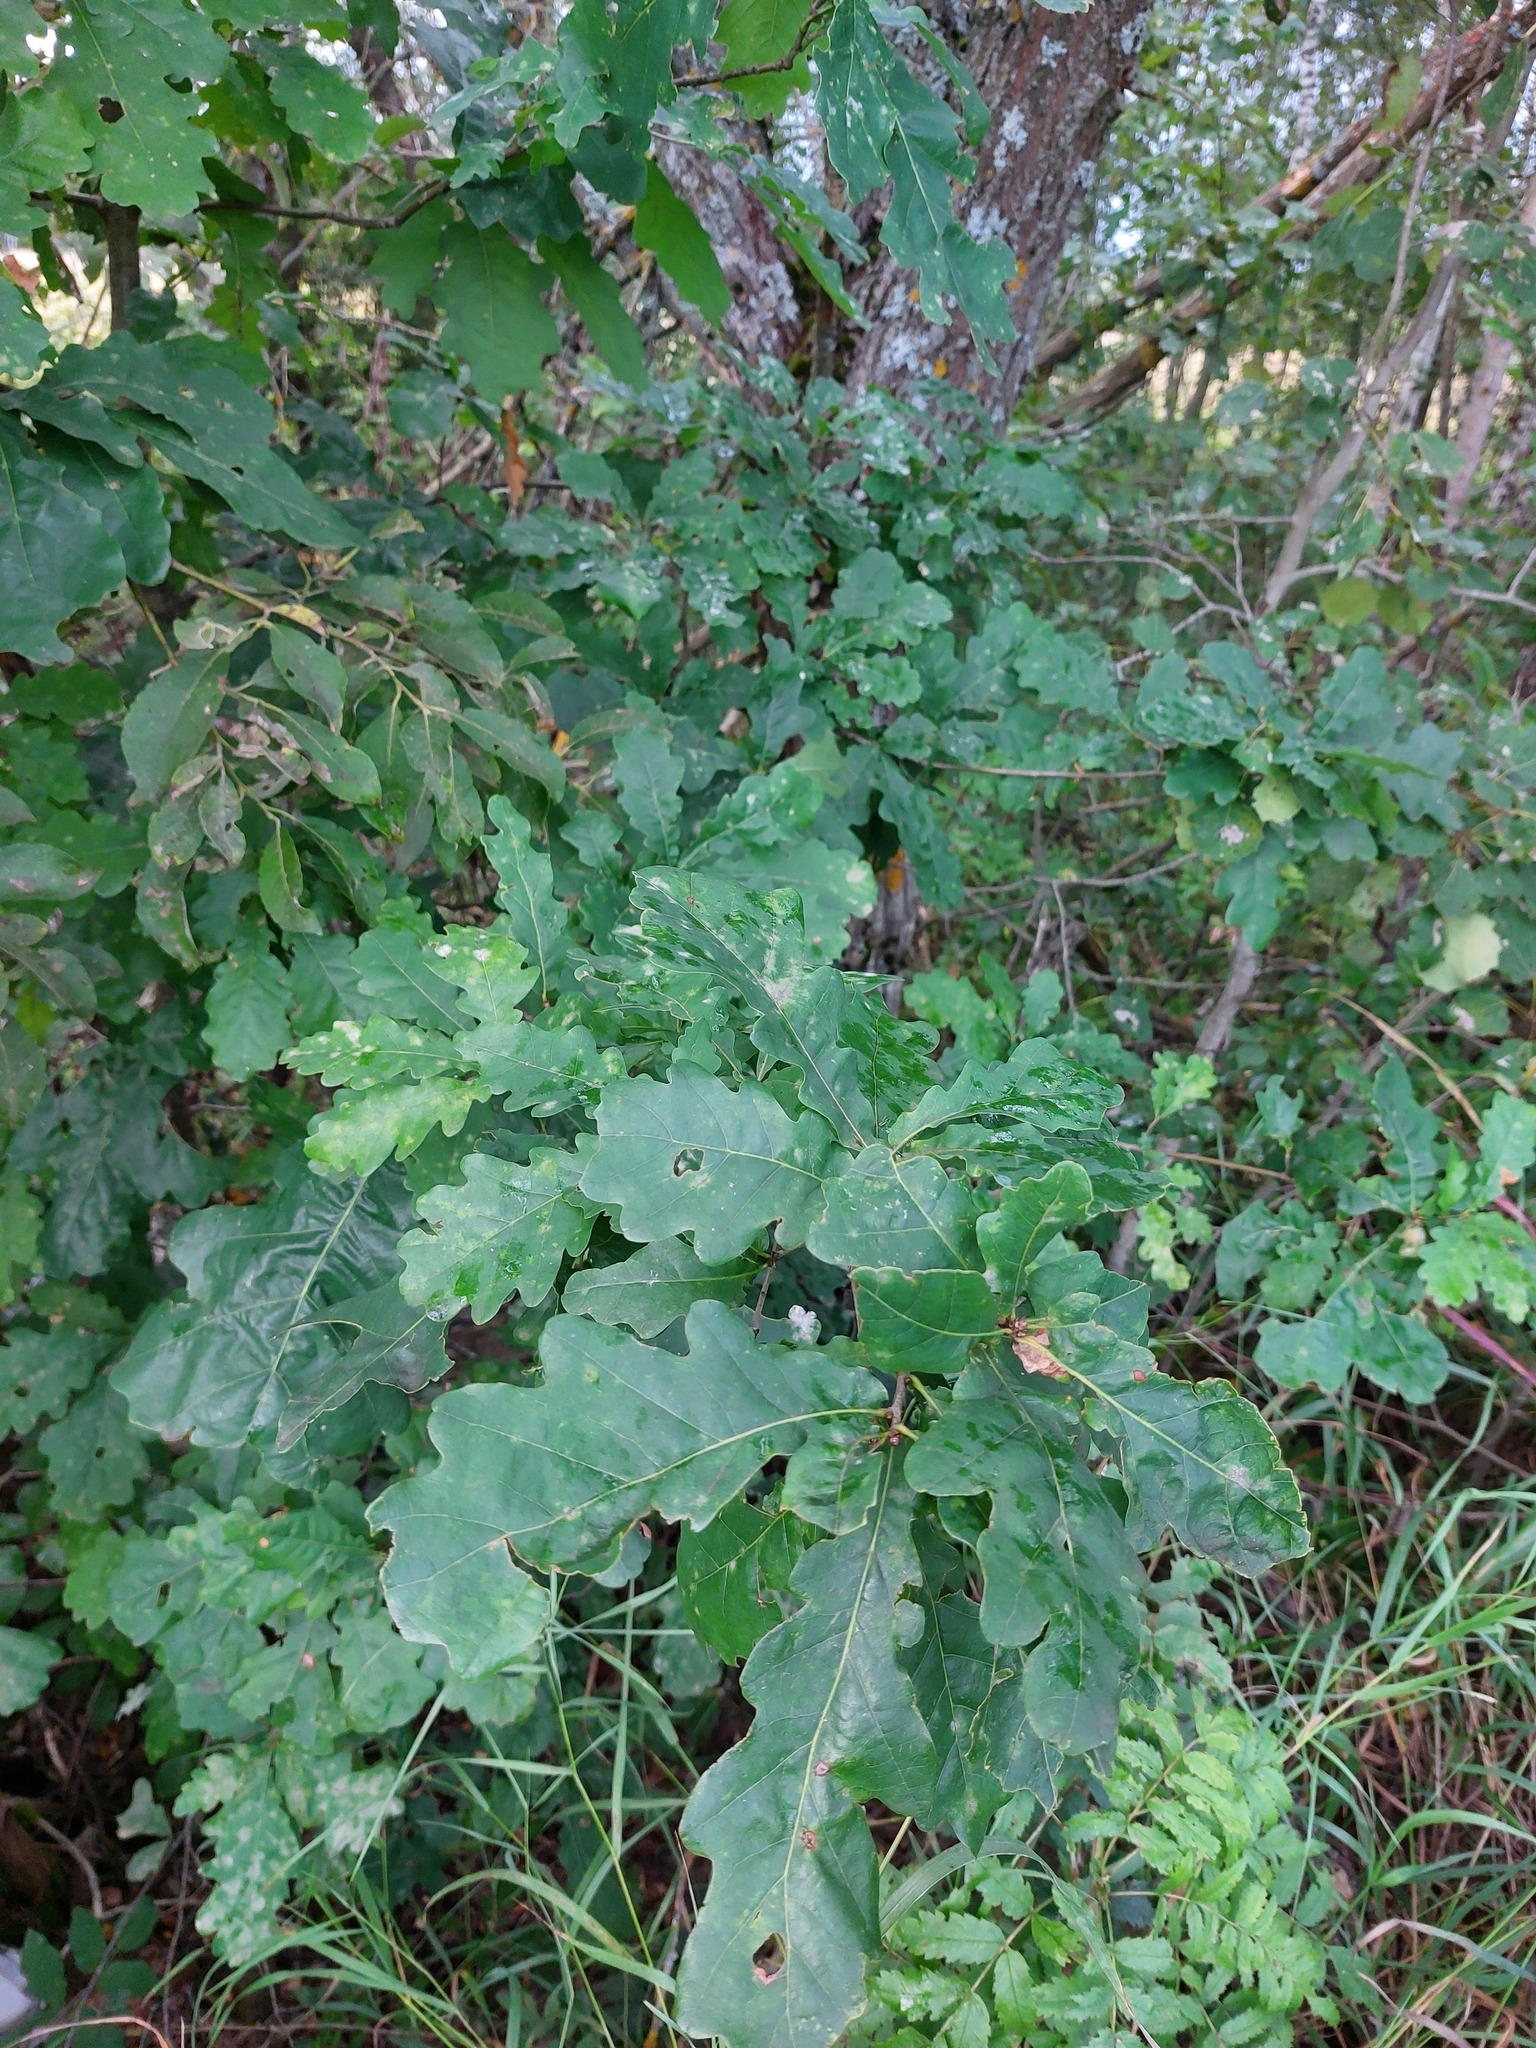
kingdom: Plantae
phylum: Tracheophyta
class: Magnoliopsida
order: Fagales
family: Fagaceae
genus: Quercus
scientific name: Quercus robur
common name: Pedunculate oak
